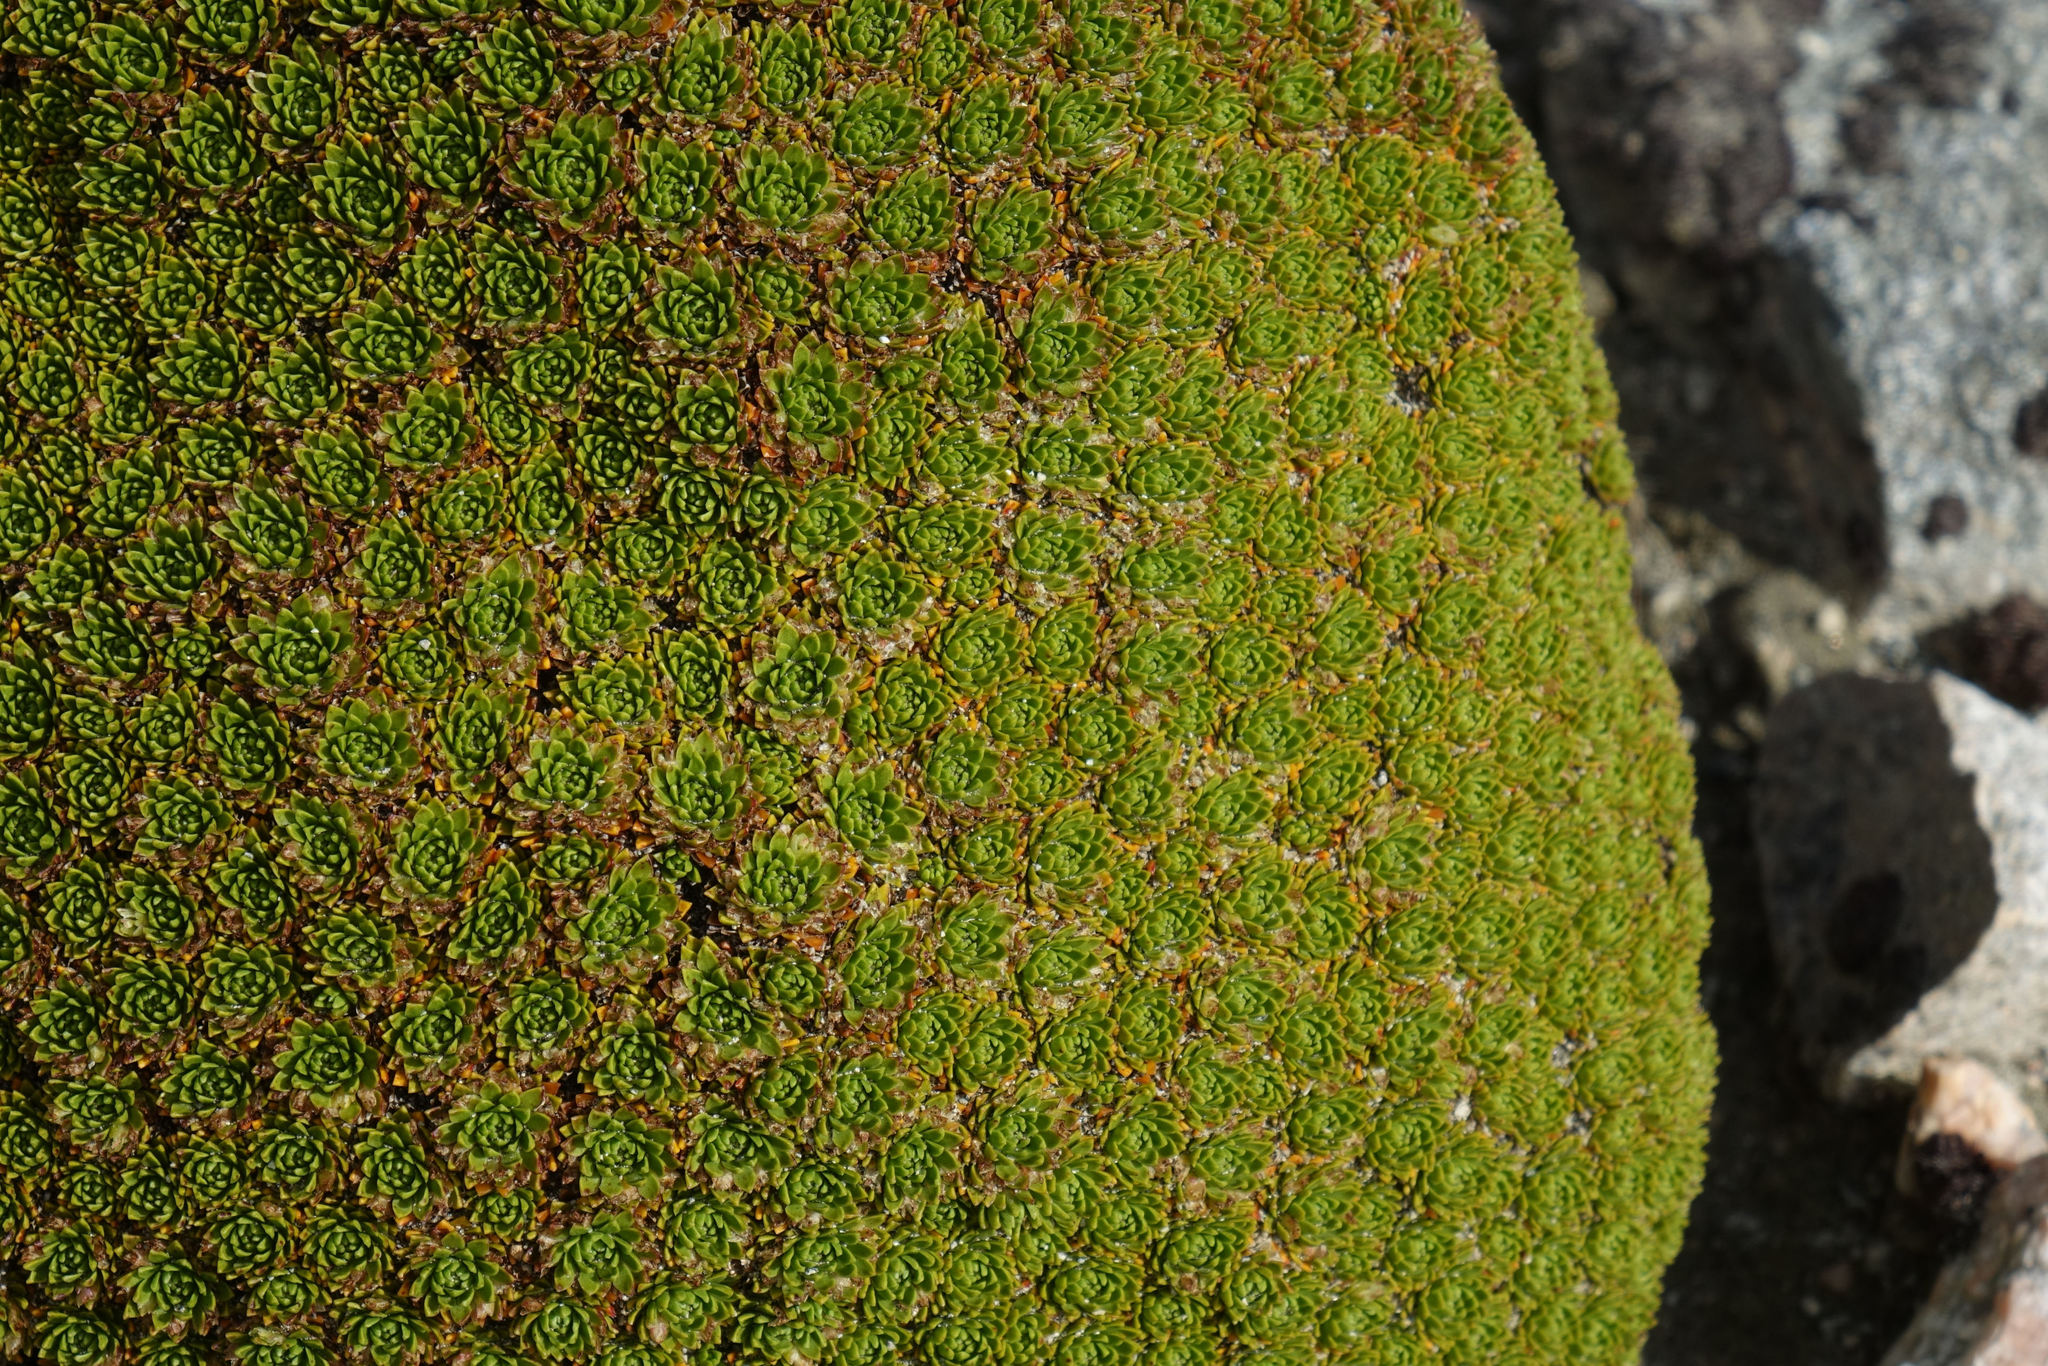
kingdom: Plantae
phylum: Tracheophyta
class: Magnoliopsida
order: Caryophyllales
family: Montiaceae
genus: Hectorella
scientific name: Hectorella caespitosa
